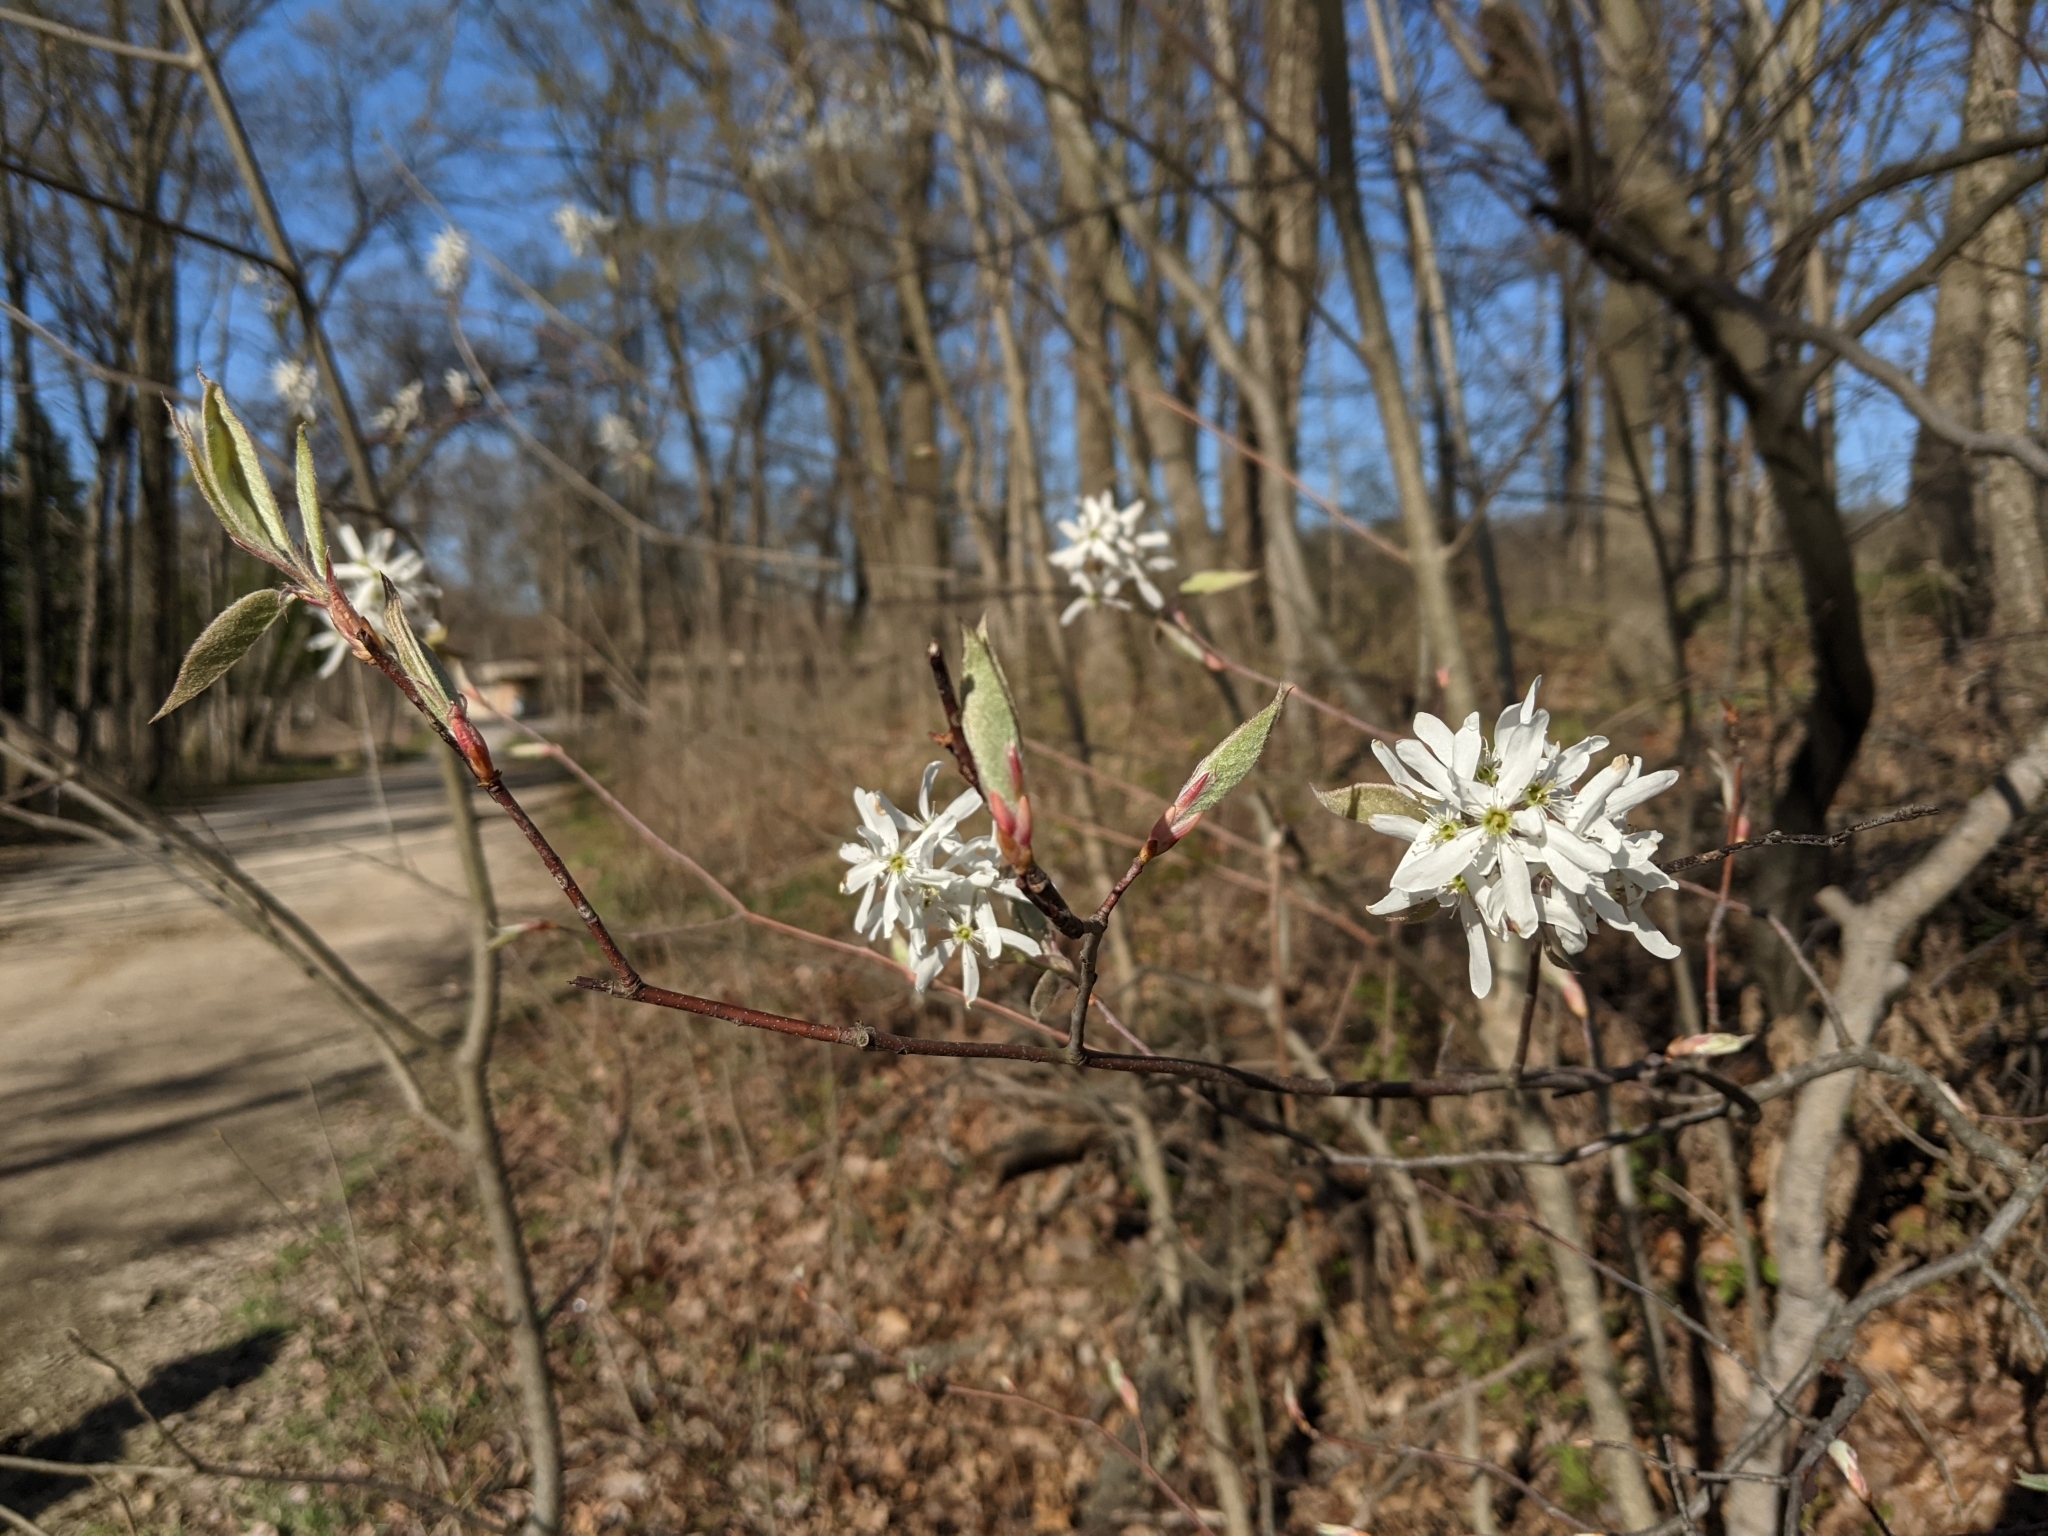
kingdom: Plantae
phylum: Tracheophyta
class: Magnoliopsida
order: Rosales
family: Rosaceae
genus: Amelanchier
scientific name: Amelanchier arborea
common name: Downy serviceberry
